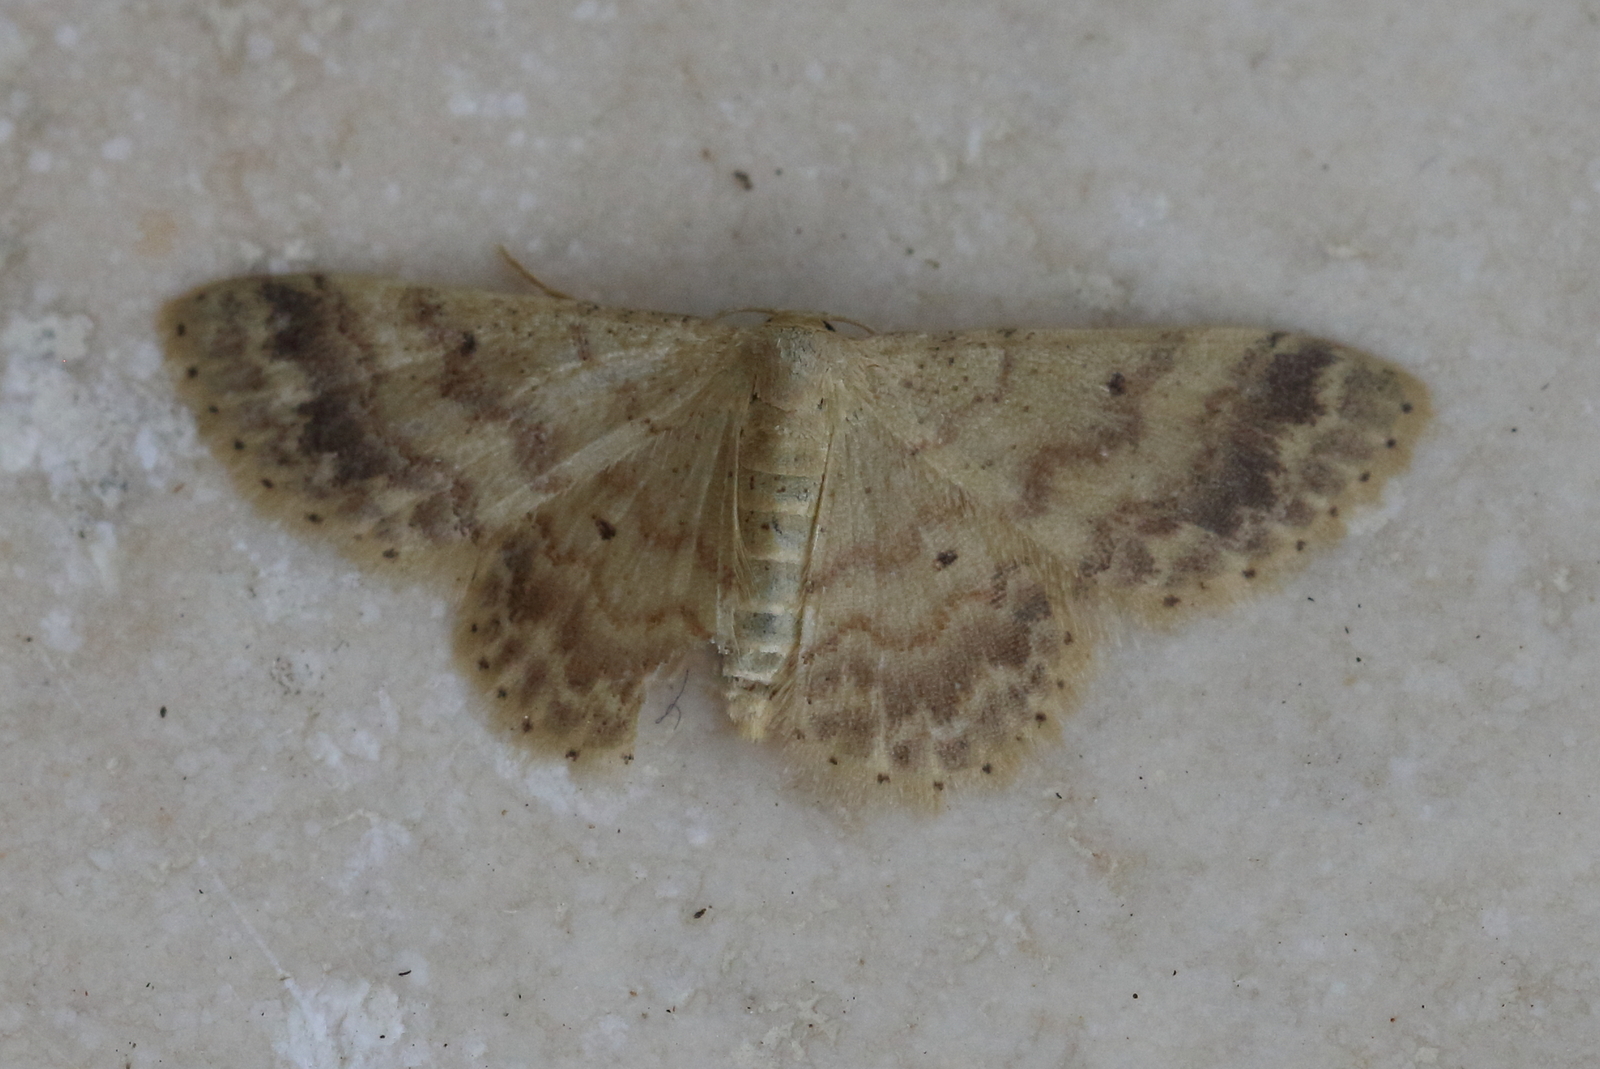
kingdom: Animalia
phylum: Arthropoda
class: Insecta
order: Lepidoptera
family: Geometridae
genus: Idaea
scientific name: Idaea pilosata
